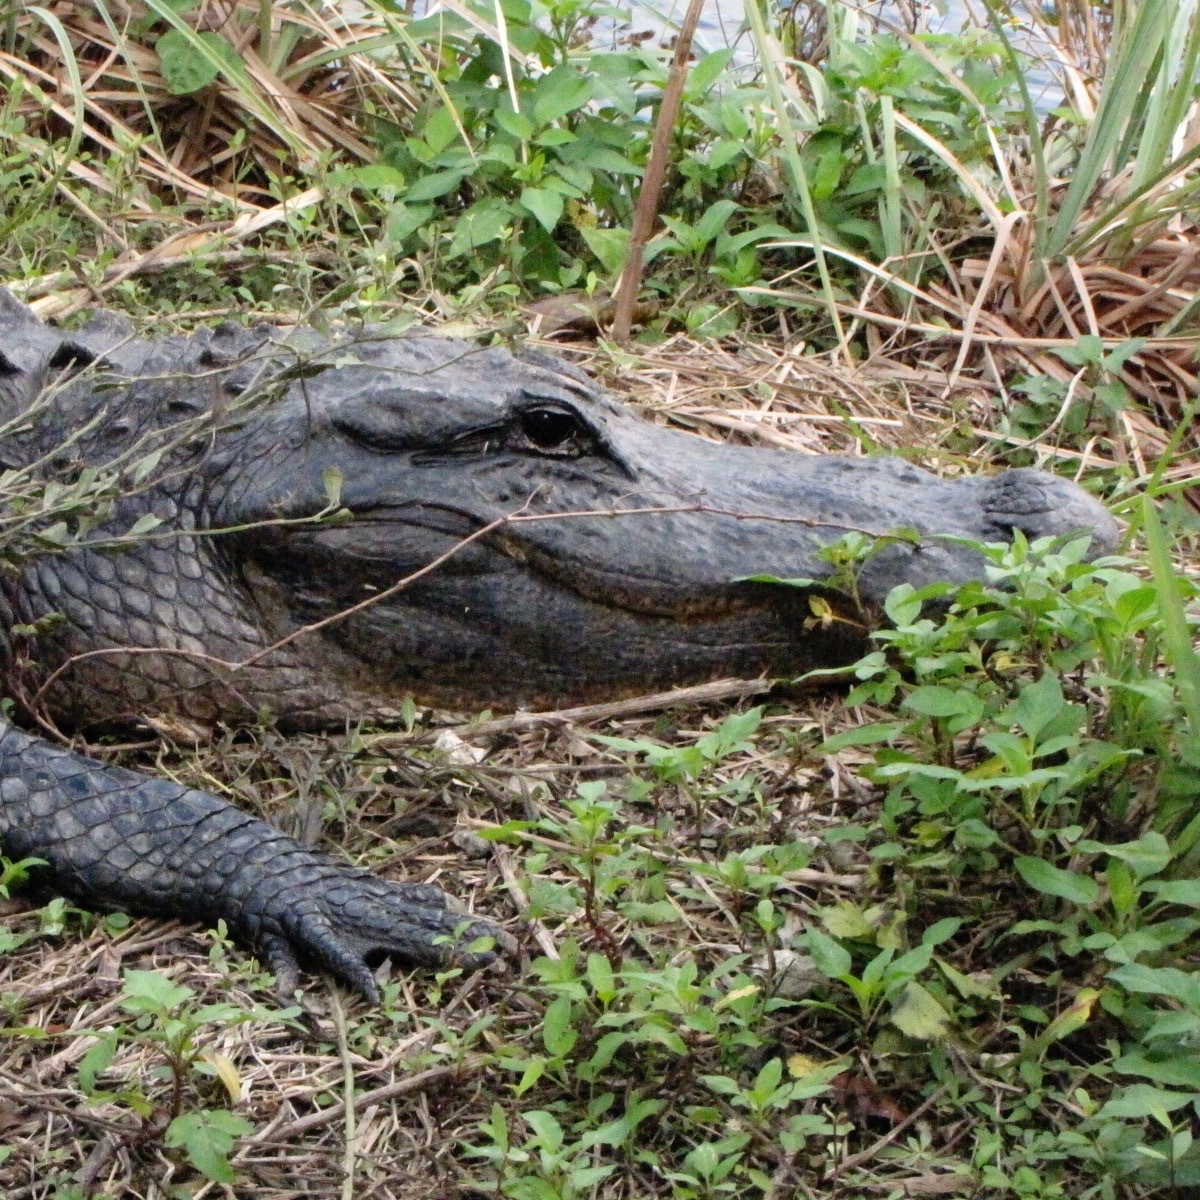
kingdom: Animalia
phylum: Chordata
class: Crocodylia
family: Alligatoridae
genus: Alligator
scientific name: Alligator mississippiensis
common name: American alligator
